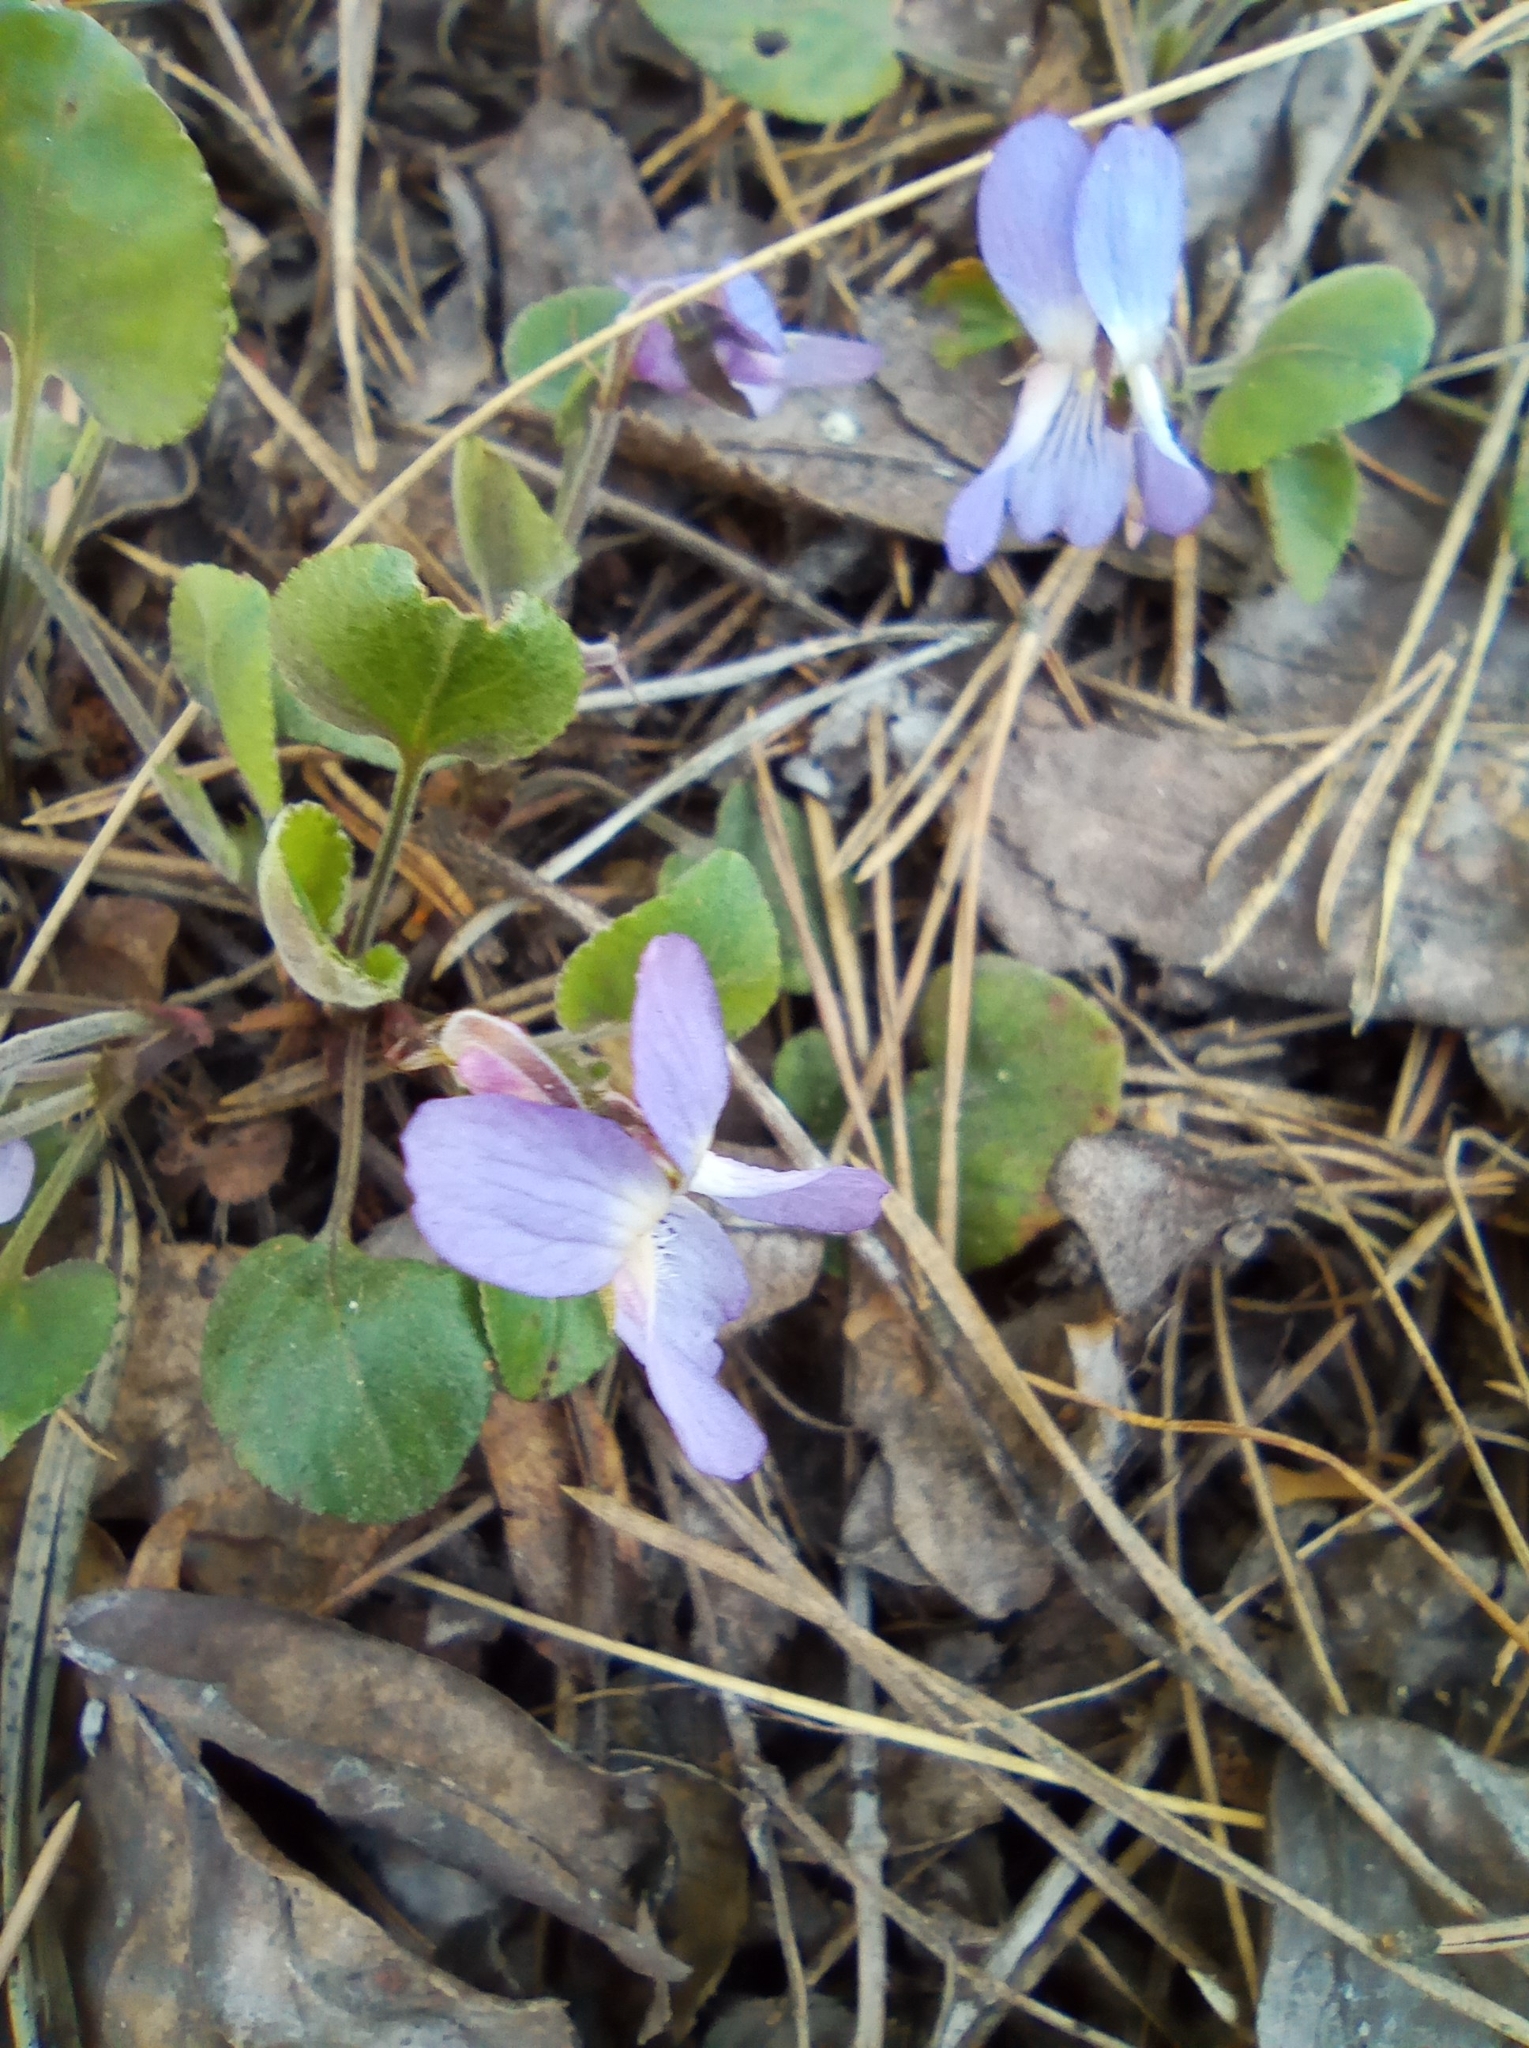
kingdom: Plantae
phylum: Tracheophyta
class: Magnoliopsida
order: Malpighiales
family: Violaceae
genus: Viola
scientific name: Viola rupestris
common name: Teesdale violet
